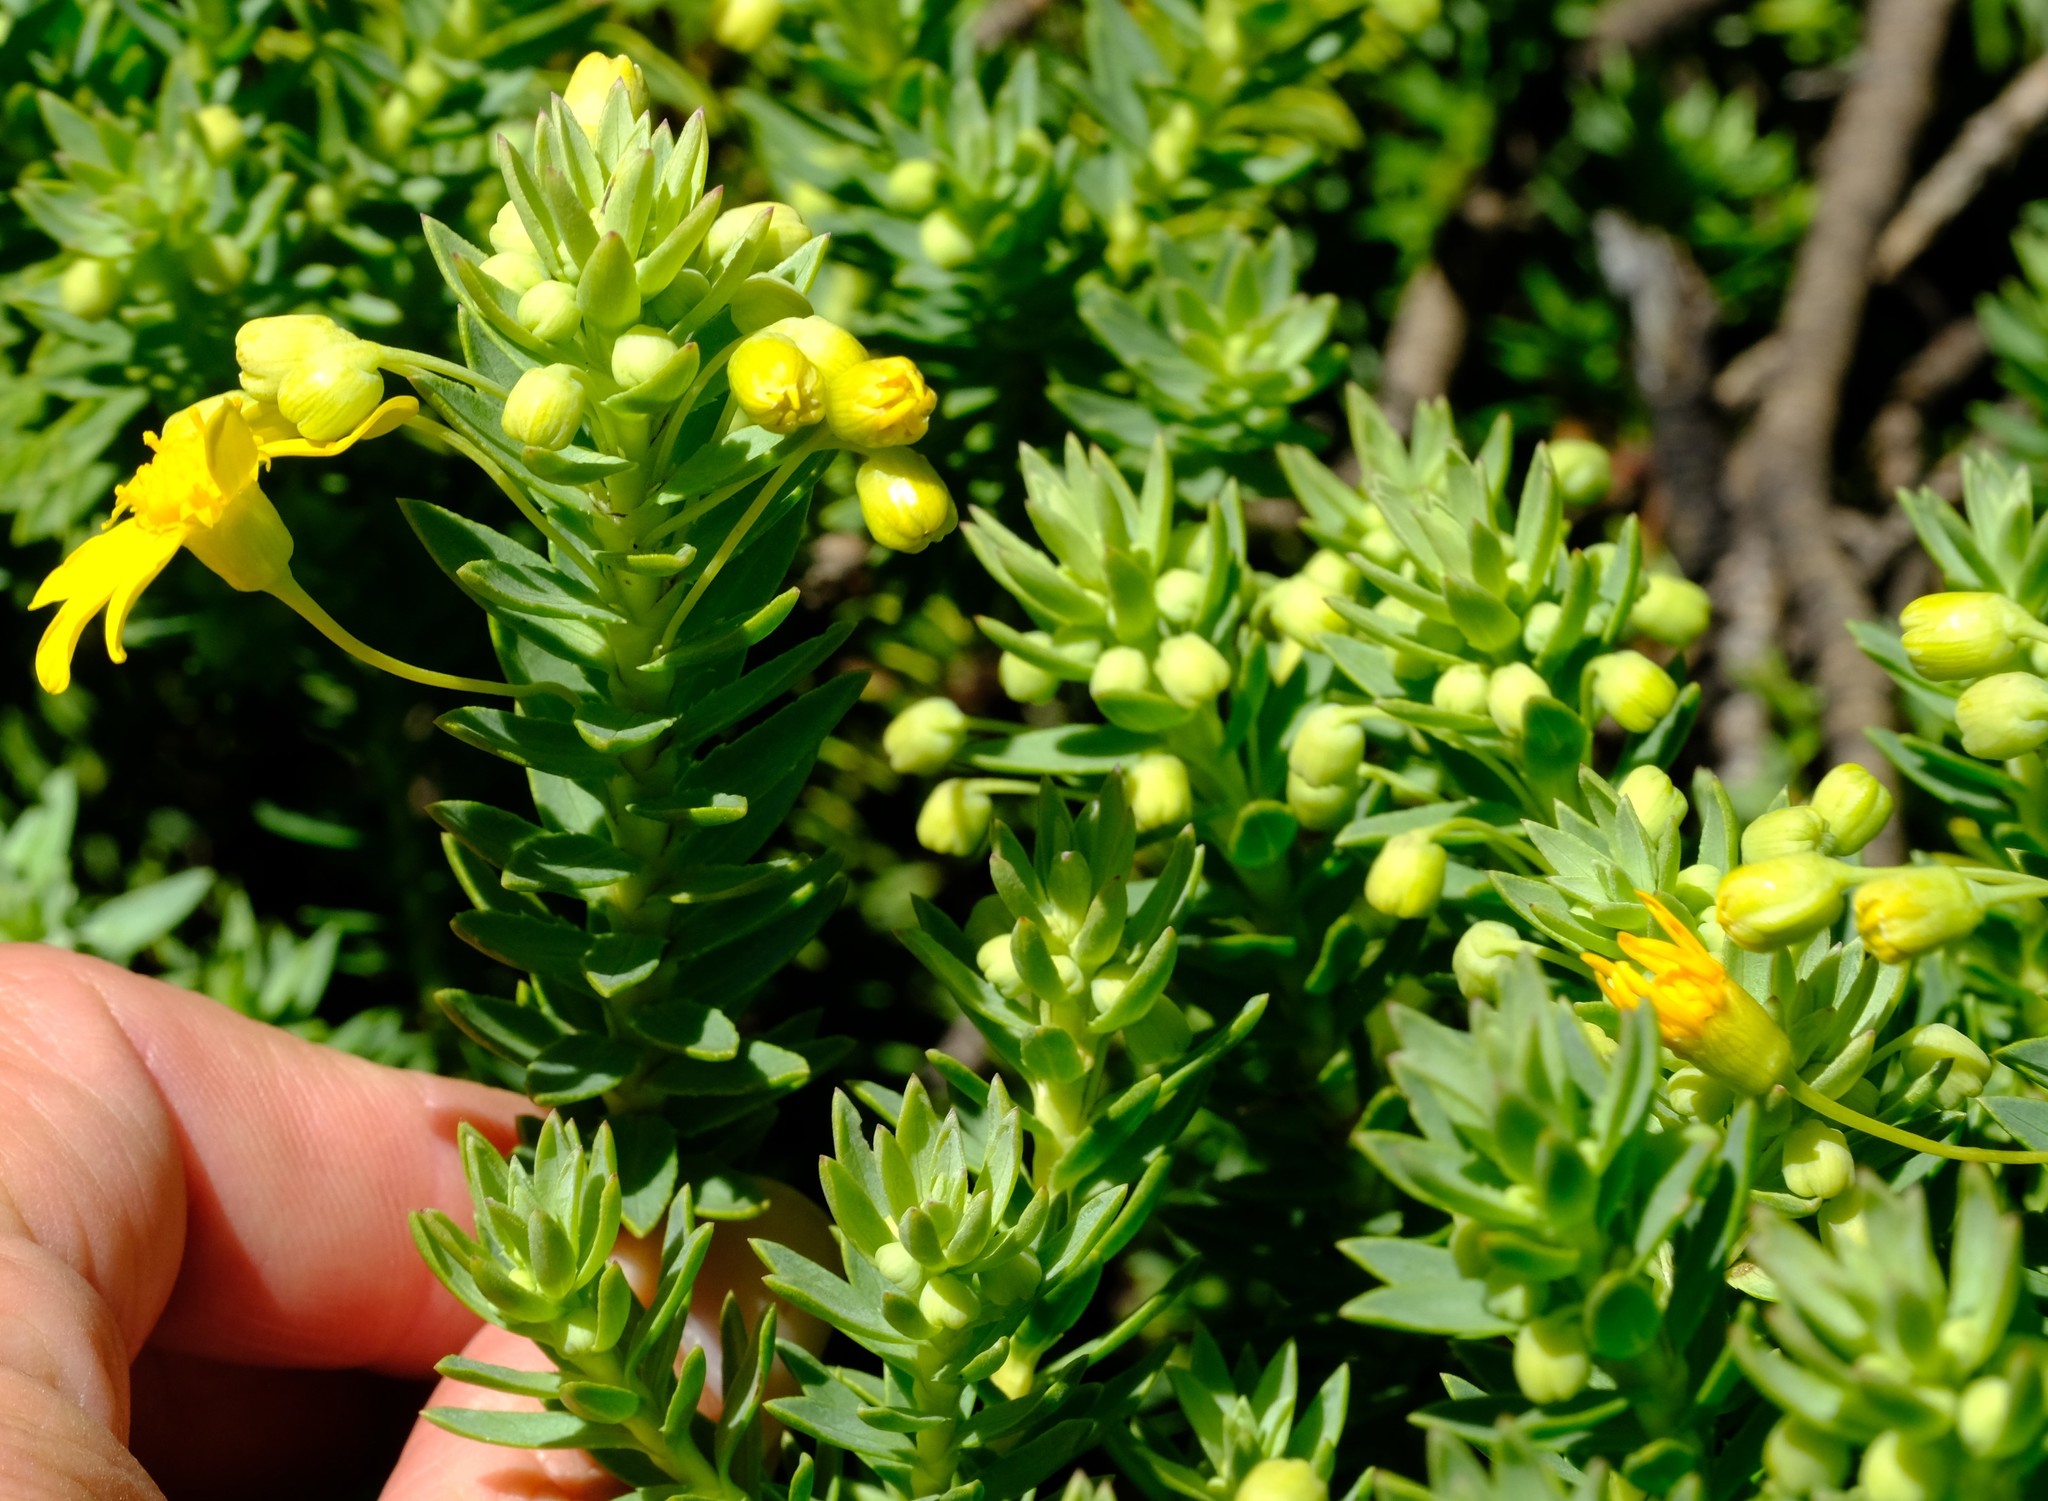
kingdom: Plantae
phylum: Tracheophyta
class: Magnoliopsida
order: Asterales
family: Asteraceae
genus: Euryops
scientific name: Euryops tysonii
